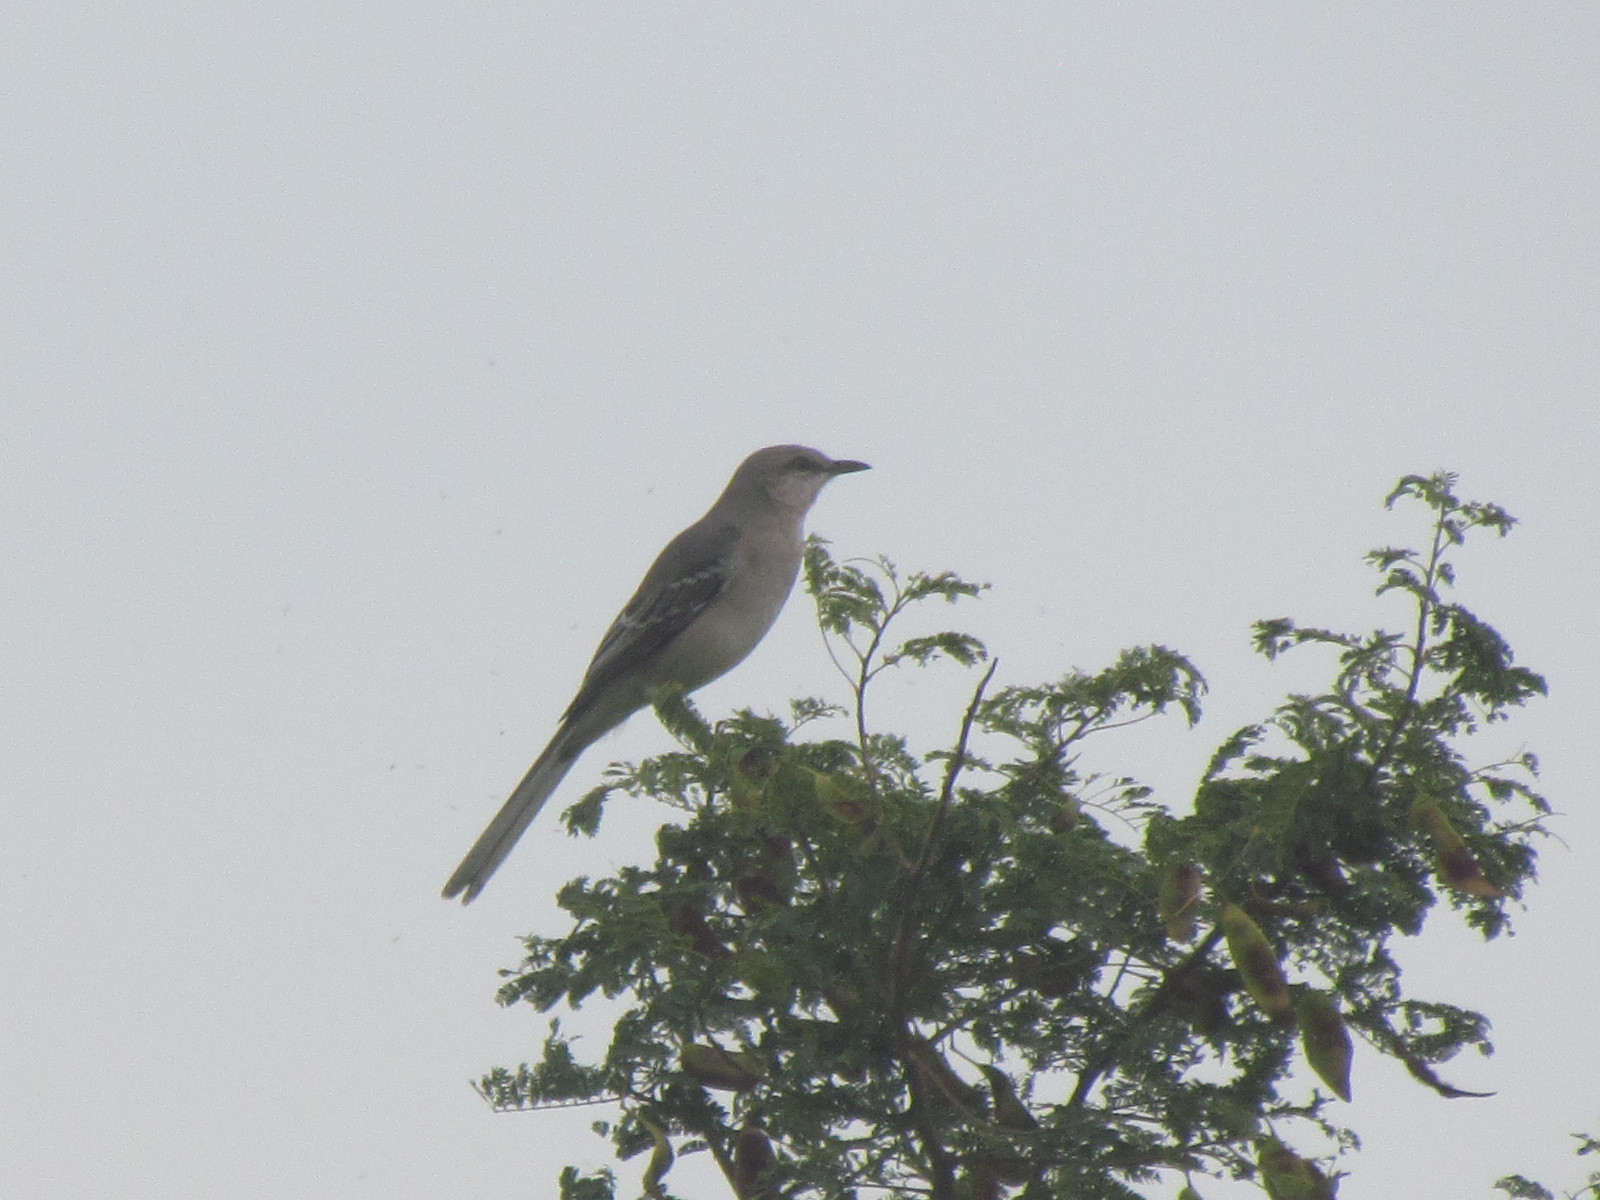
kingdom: Animalia
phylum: Chordata
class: Aves
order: Passeriformes
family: Mimidae
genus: Mimus
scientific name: Mimus gilvus
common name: Tropical mockingbird
